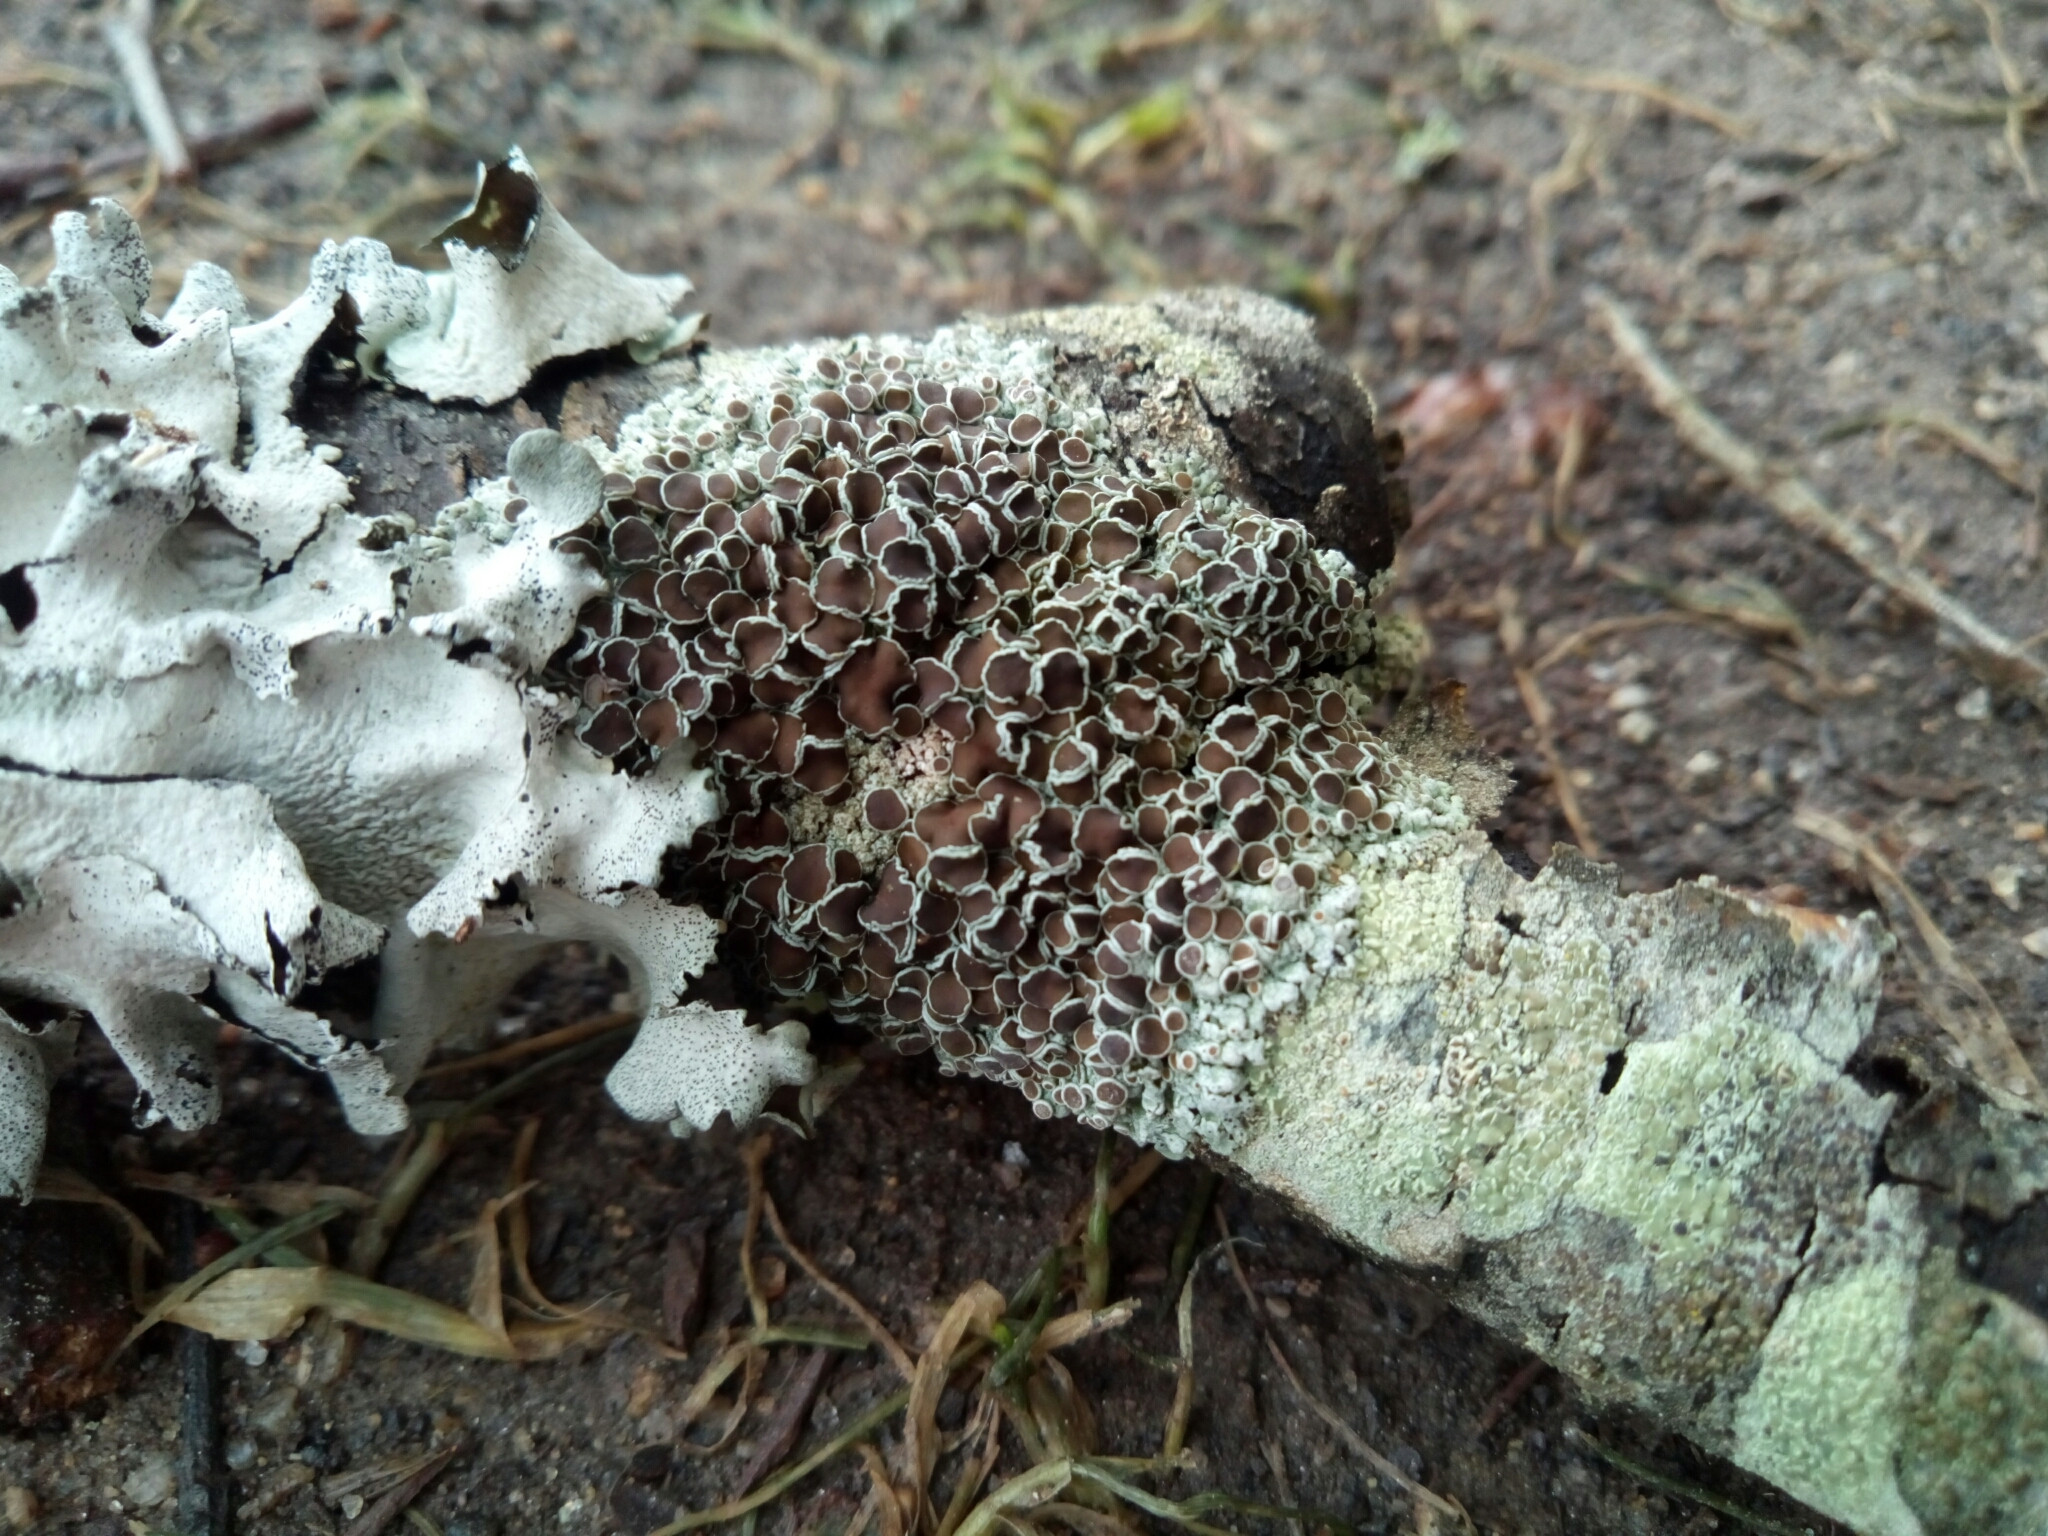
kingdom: Fungi
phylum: Ascomycota
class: Lecanoromycetes
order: Caliciales
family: Physciaceae
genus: Physcia
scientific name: Physcia stellaris
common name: Star rosette lichen
